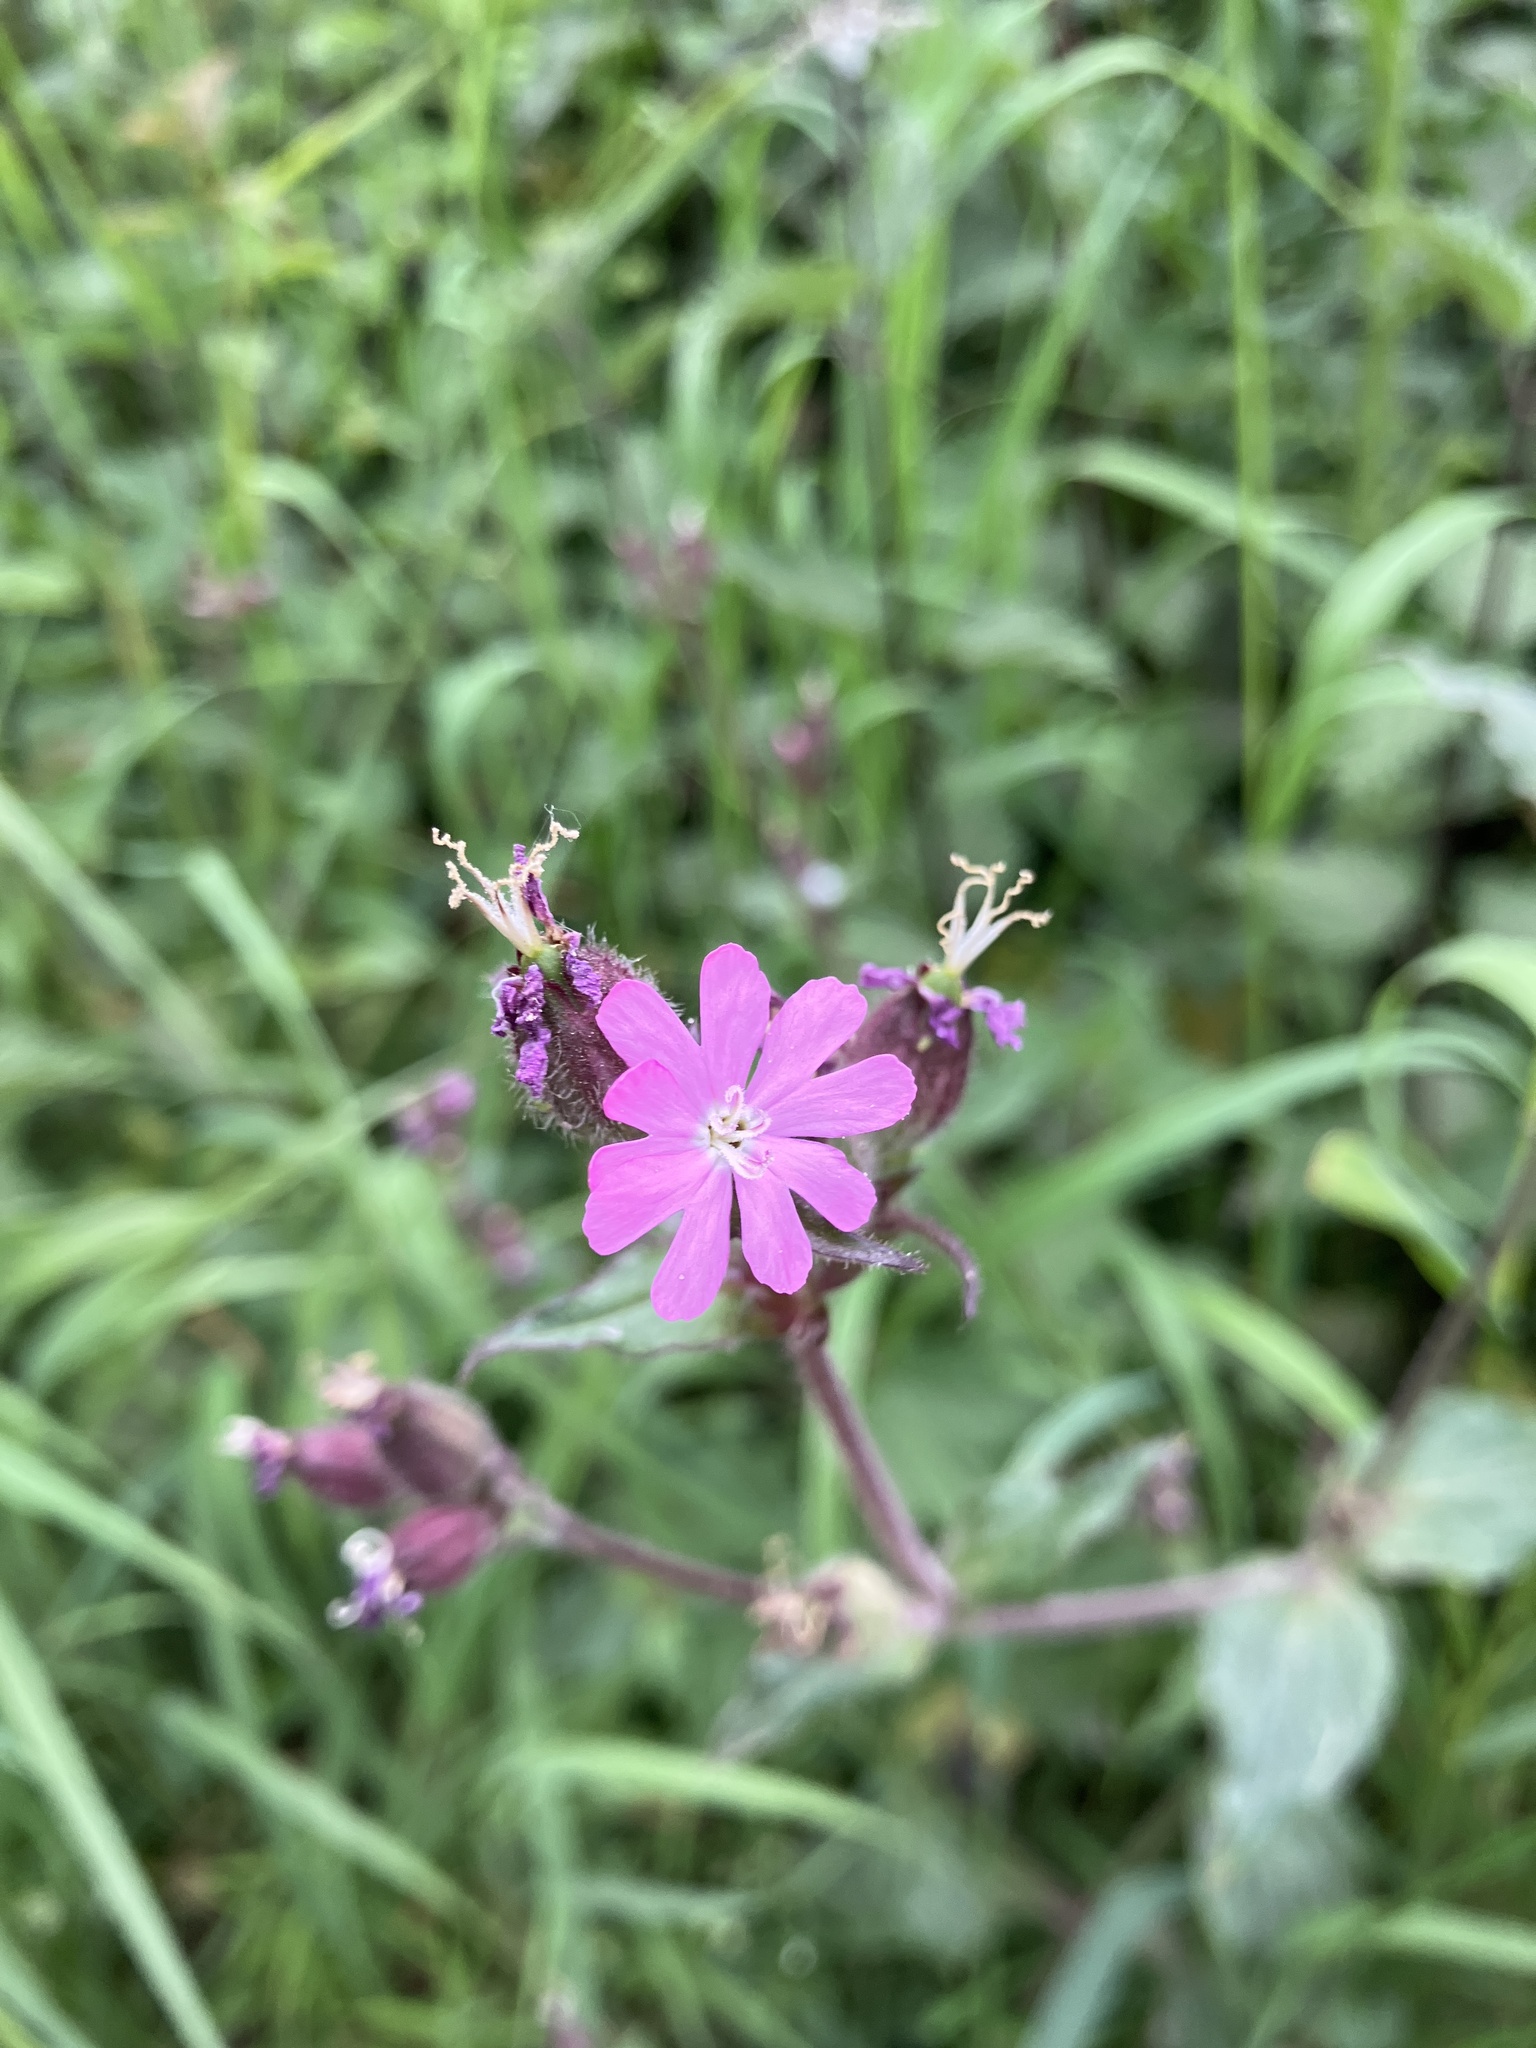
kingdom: Plantae
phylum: Tracheophyta
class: Magnoliopsida
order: Caryophyllales
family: Caryophyllaceae
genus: Silene
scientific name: Silene dioica
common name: Red campion
